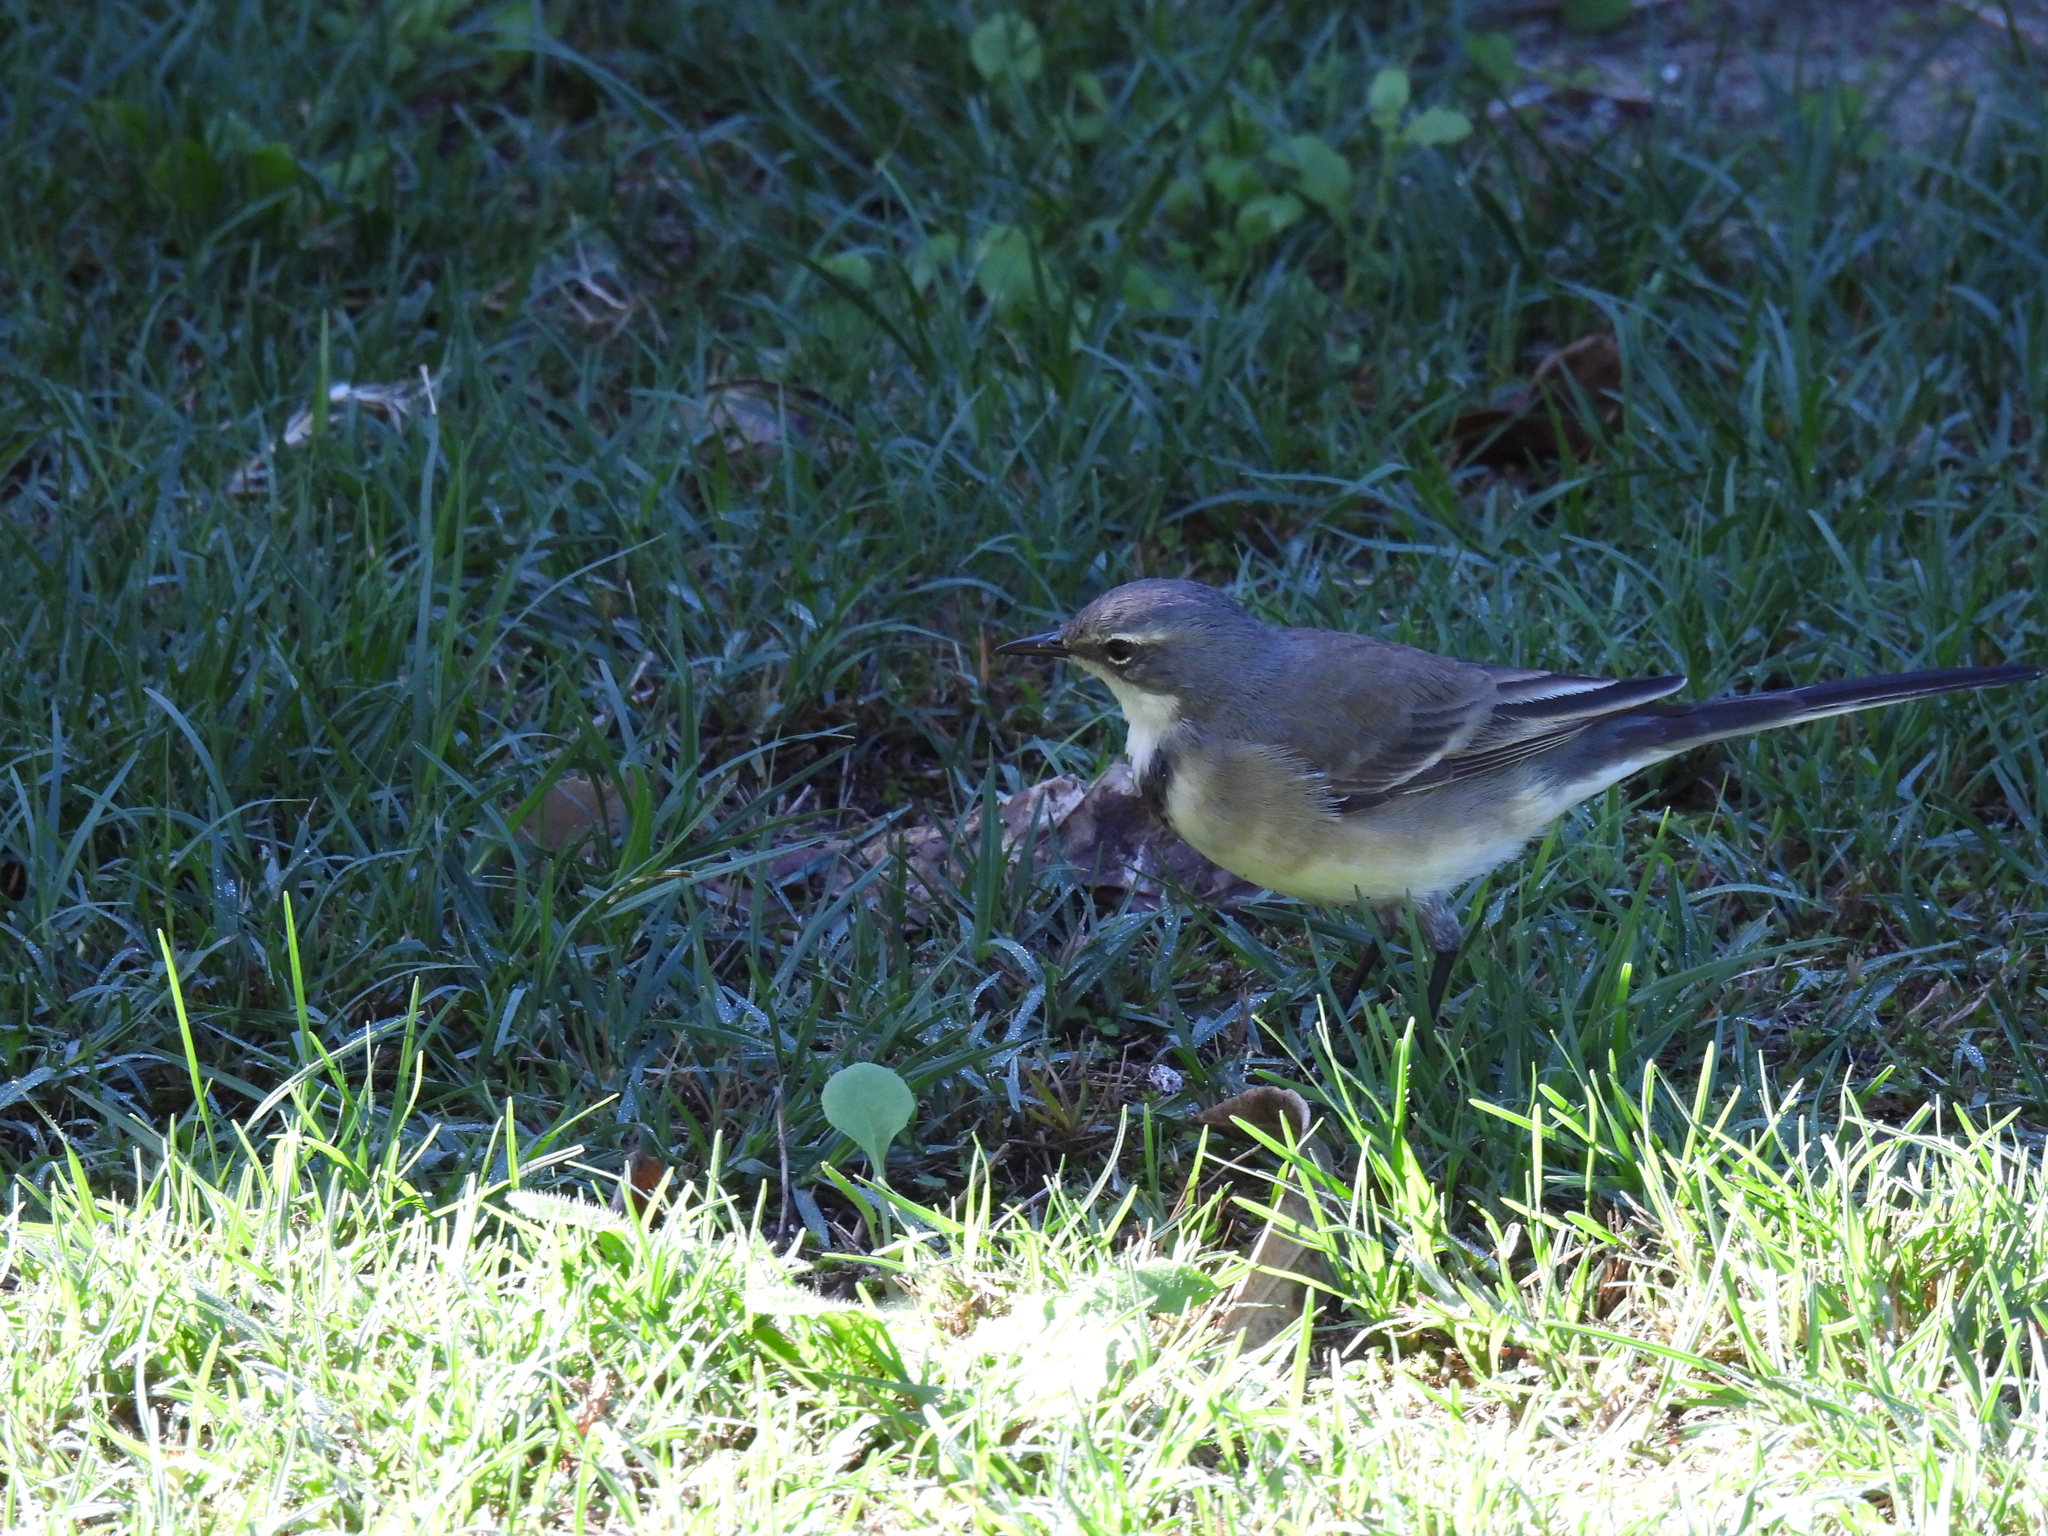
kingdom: Animalia
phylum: Chordata
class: Aves
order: Passeriformes
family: Motacillidae
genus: Motacilla
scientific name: Motacilla capensis
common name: Cape wagtail
